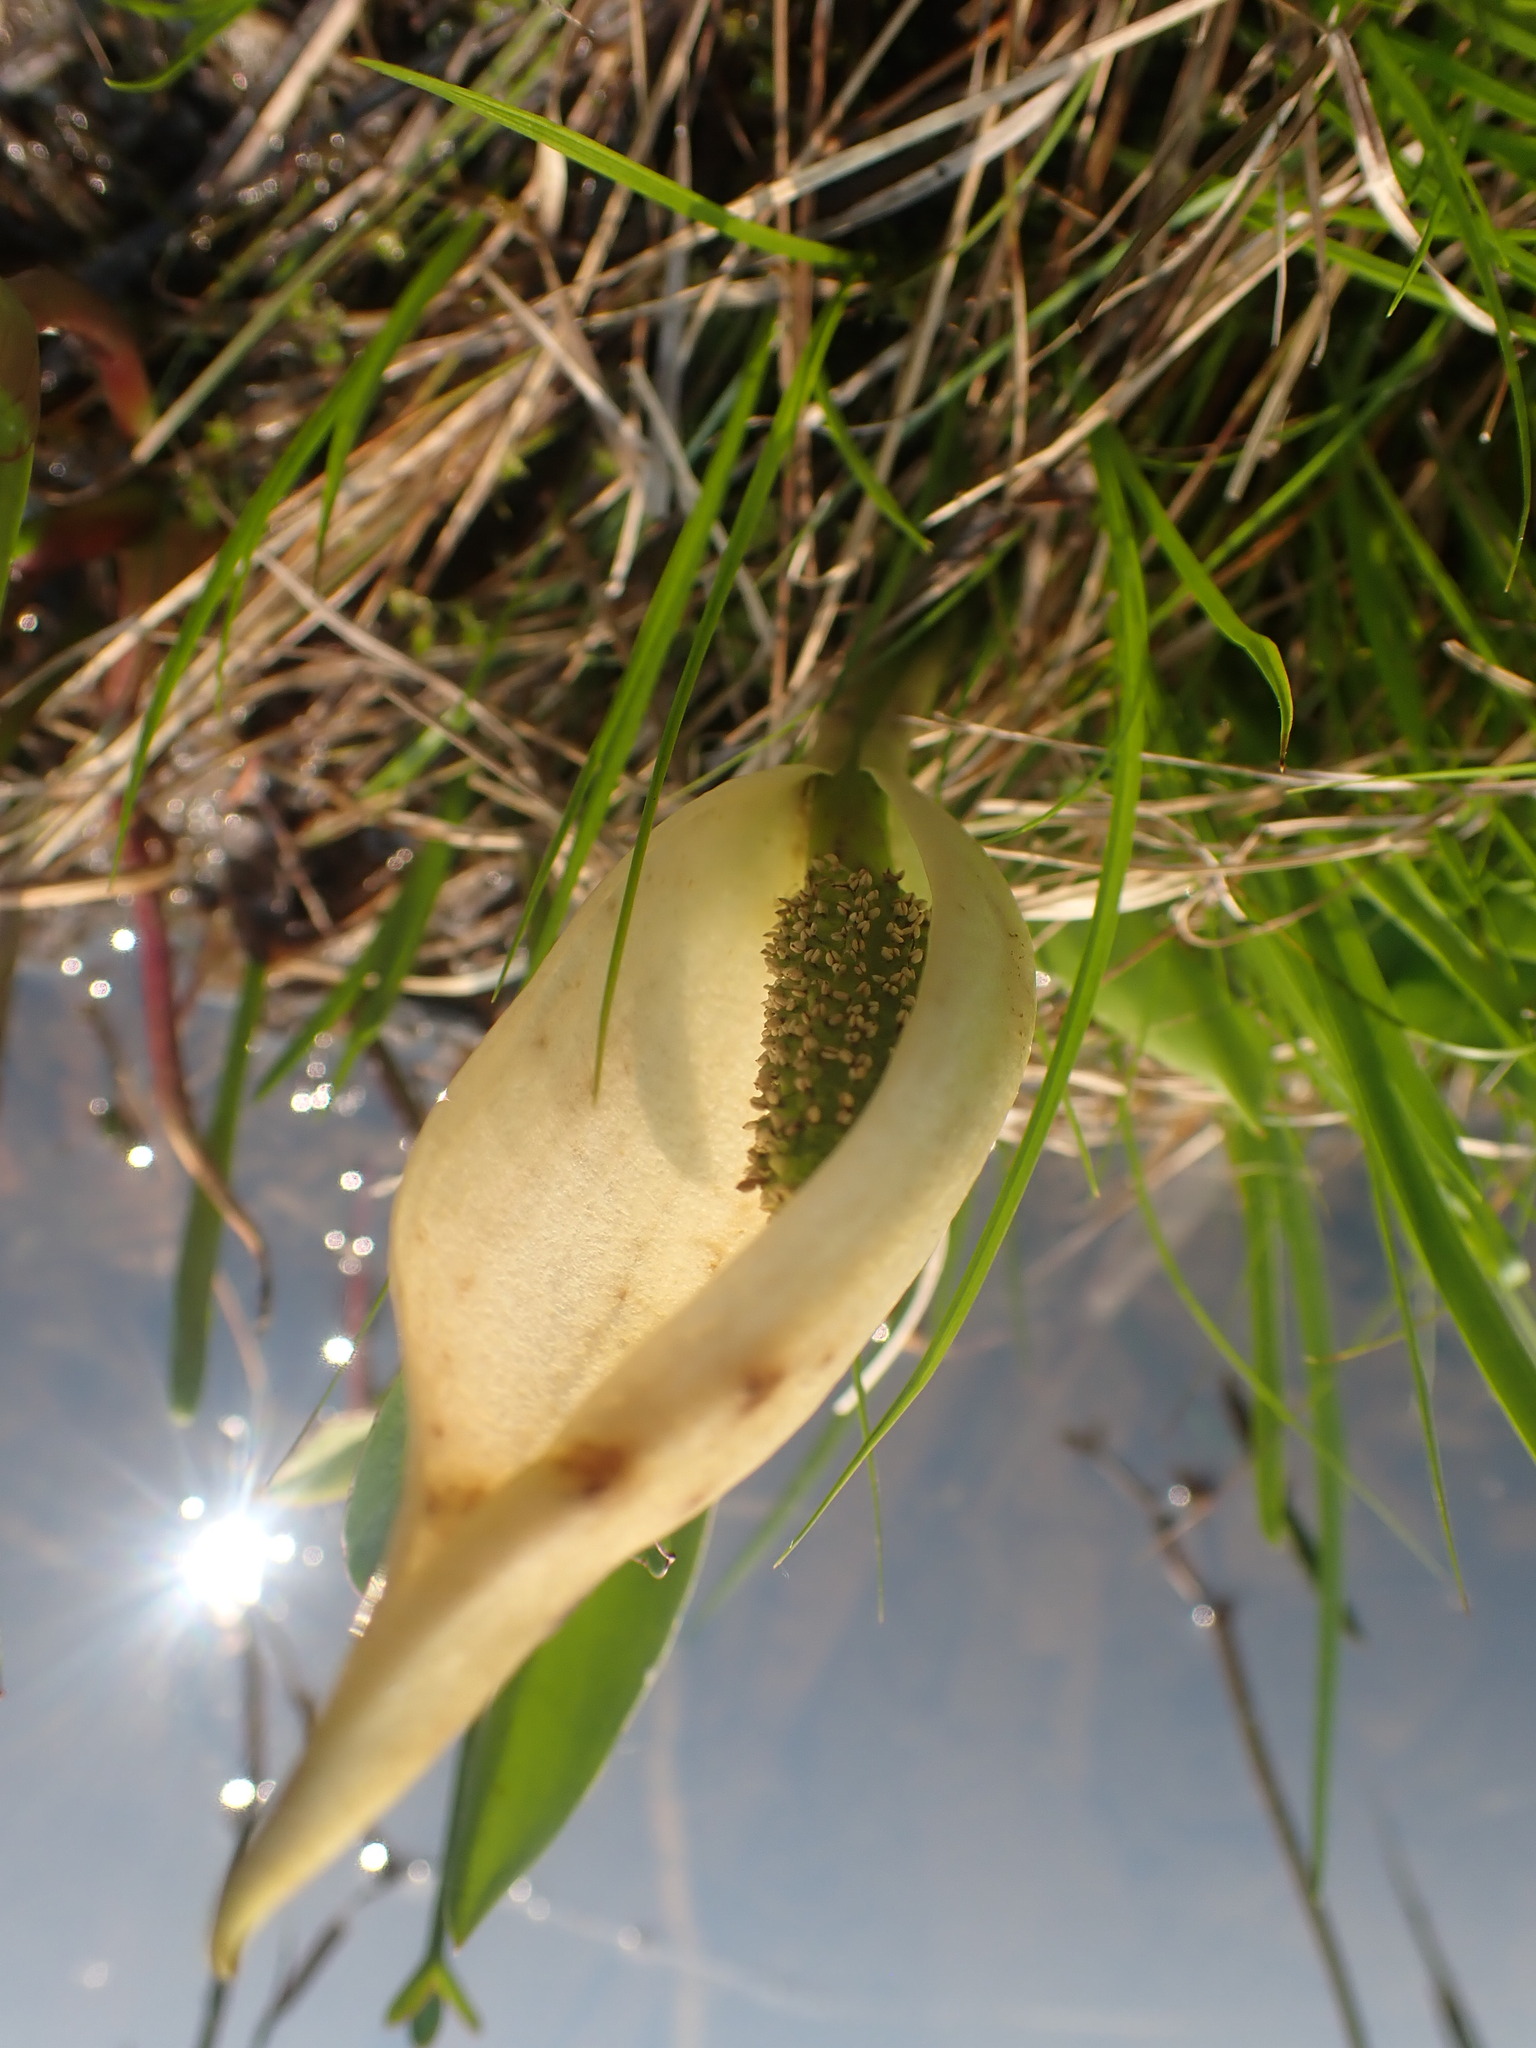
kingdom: Plantae
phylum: Tracheophyta
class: Liliopsida
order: Alismatales
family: Araceae
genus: Lysichiton
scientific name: Lysichiton americanus
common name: American skunk cabbage
